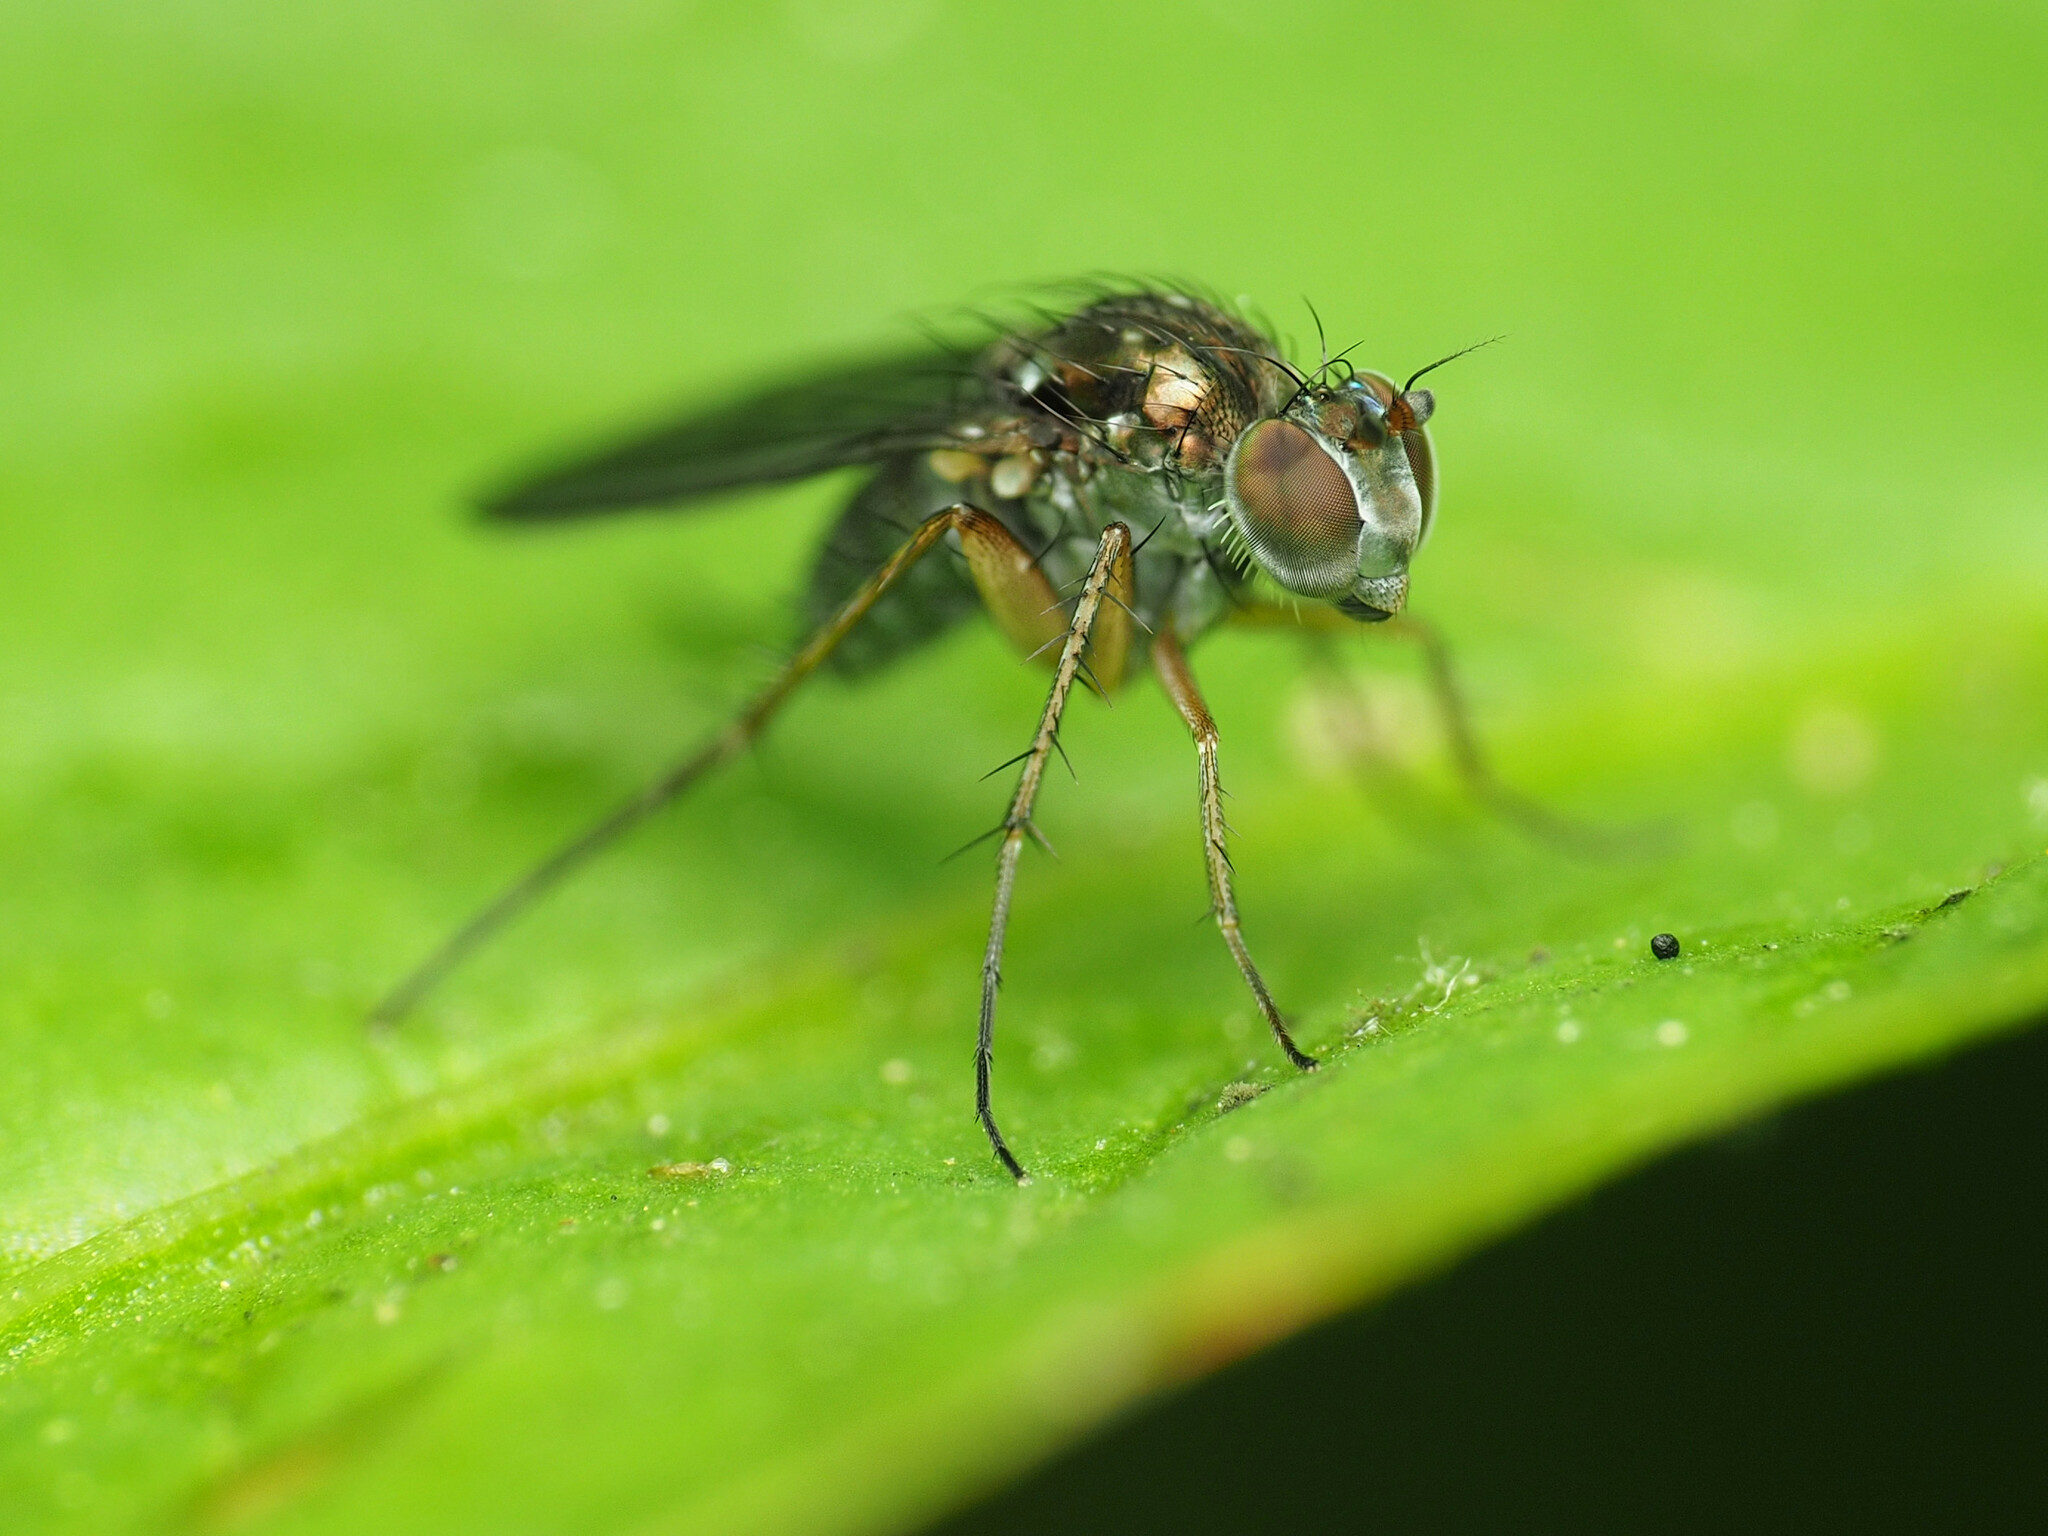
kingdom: Animalia
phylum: Arthropoda
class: Insecta
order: Diptera
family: Dolichopodidae
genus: Pelastoneurus
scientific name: Pelastoneurus vagans
